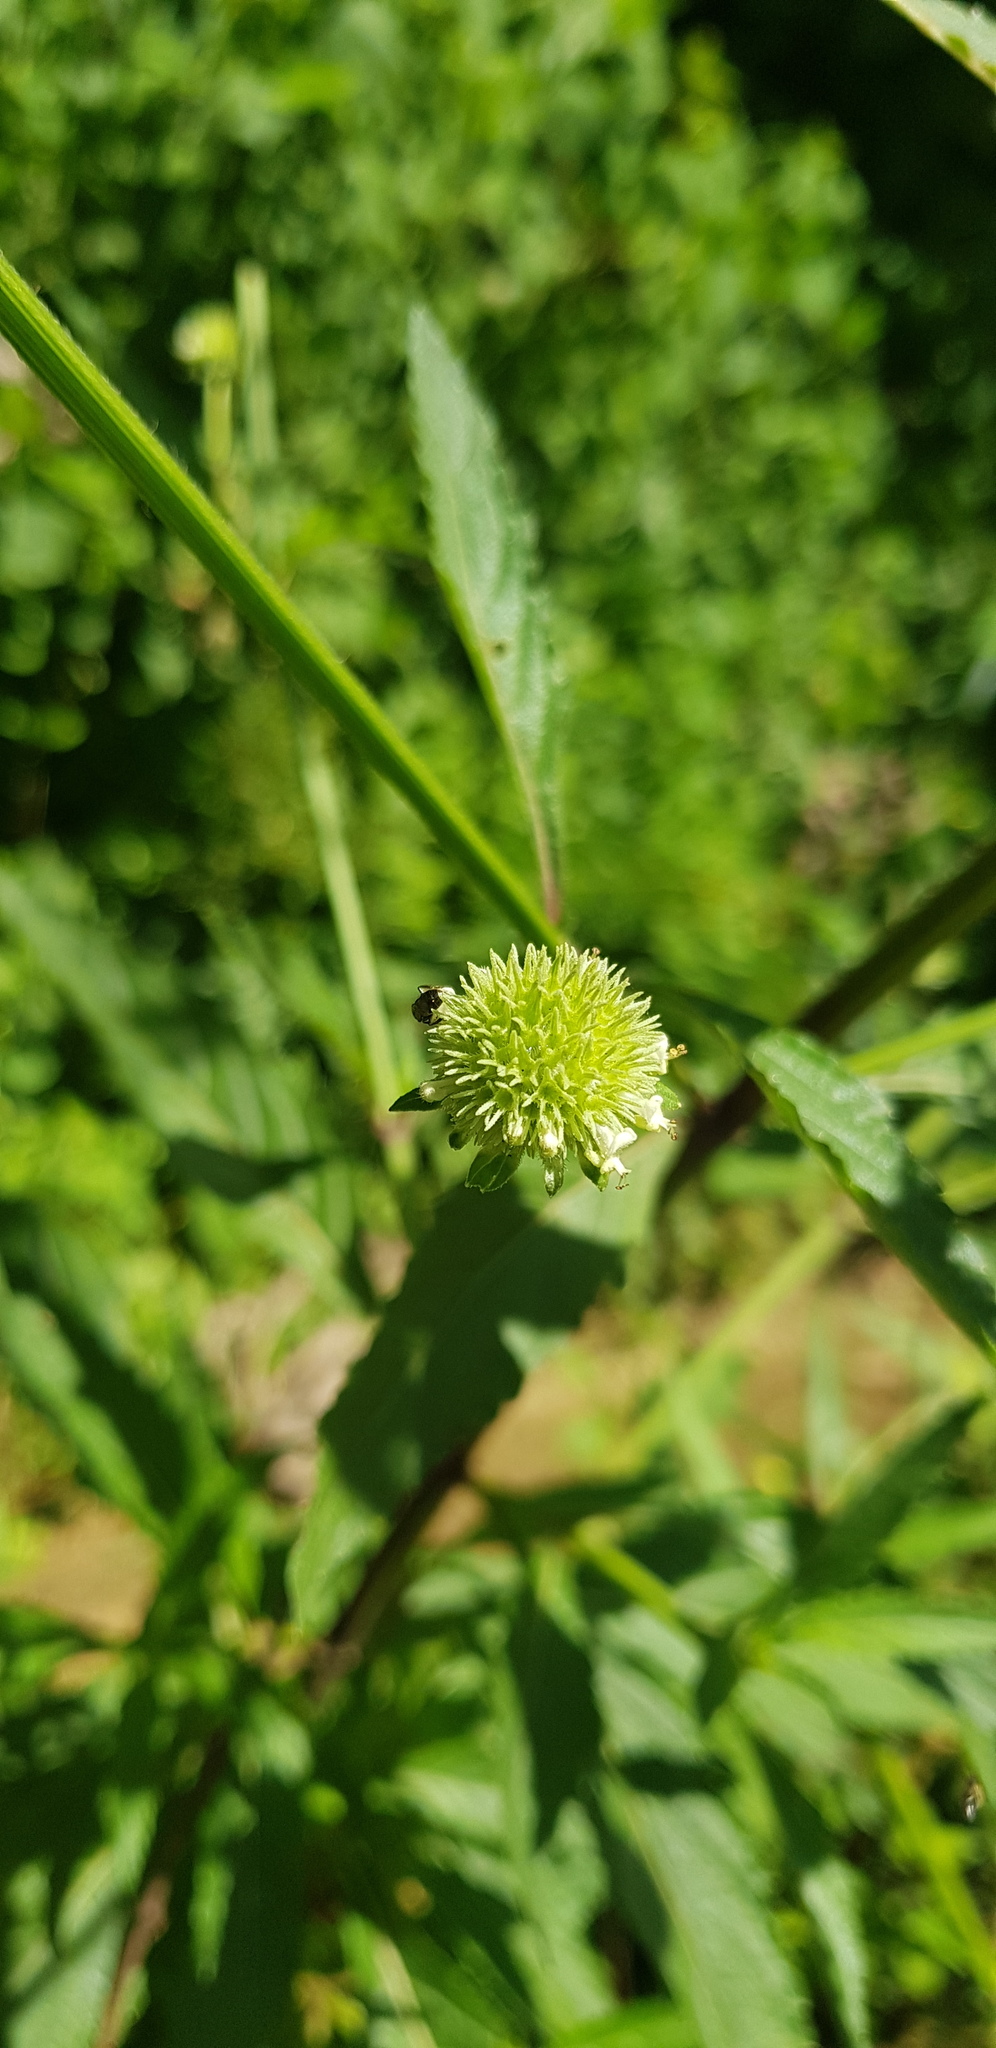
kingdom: Plantae
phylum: Tracheophyta
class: Magnoliopsida
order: Lamiales
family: Lamiaceae
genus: Hyptis
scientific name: Hyptis capitata
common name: False ironwort
